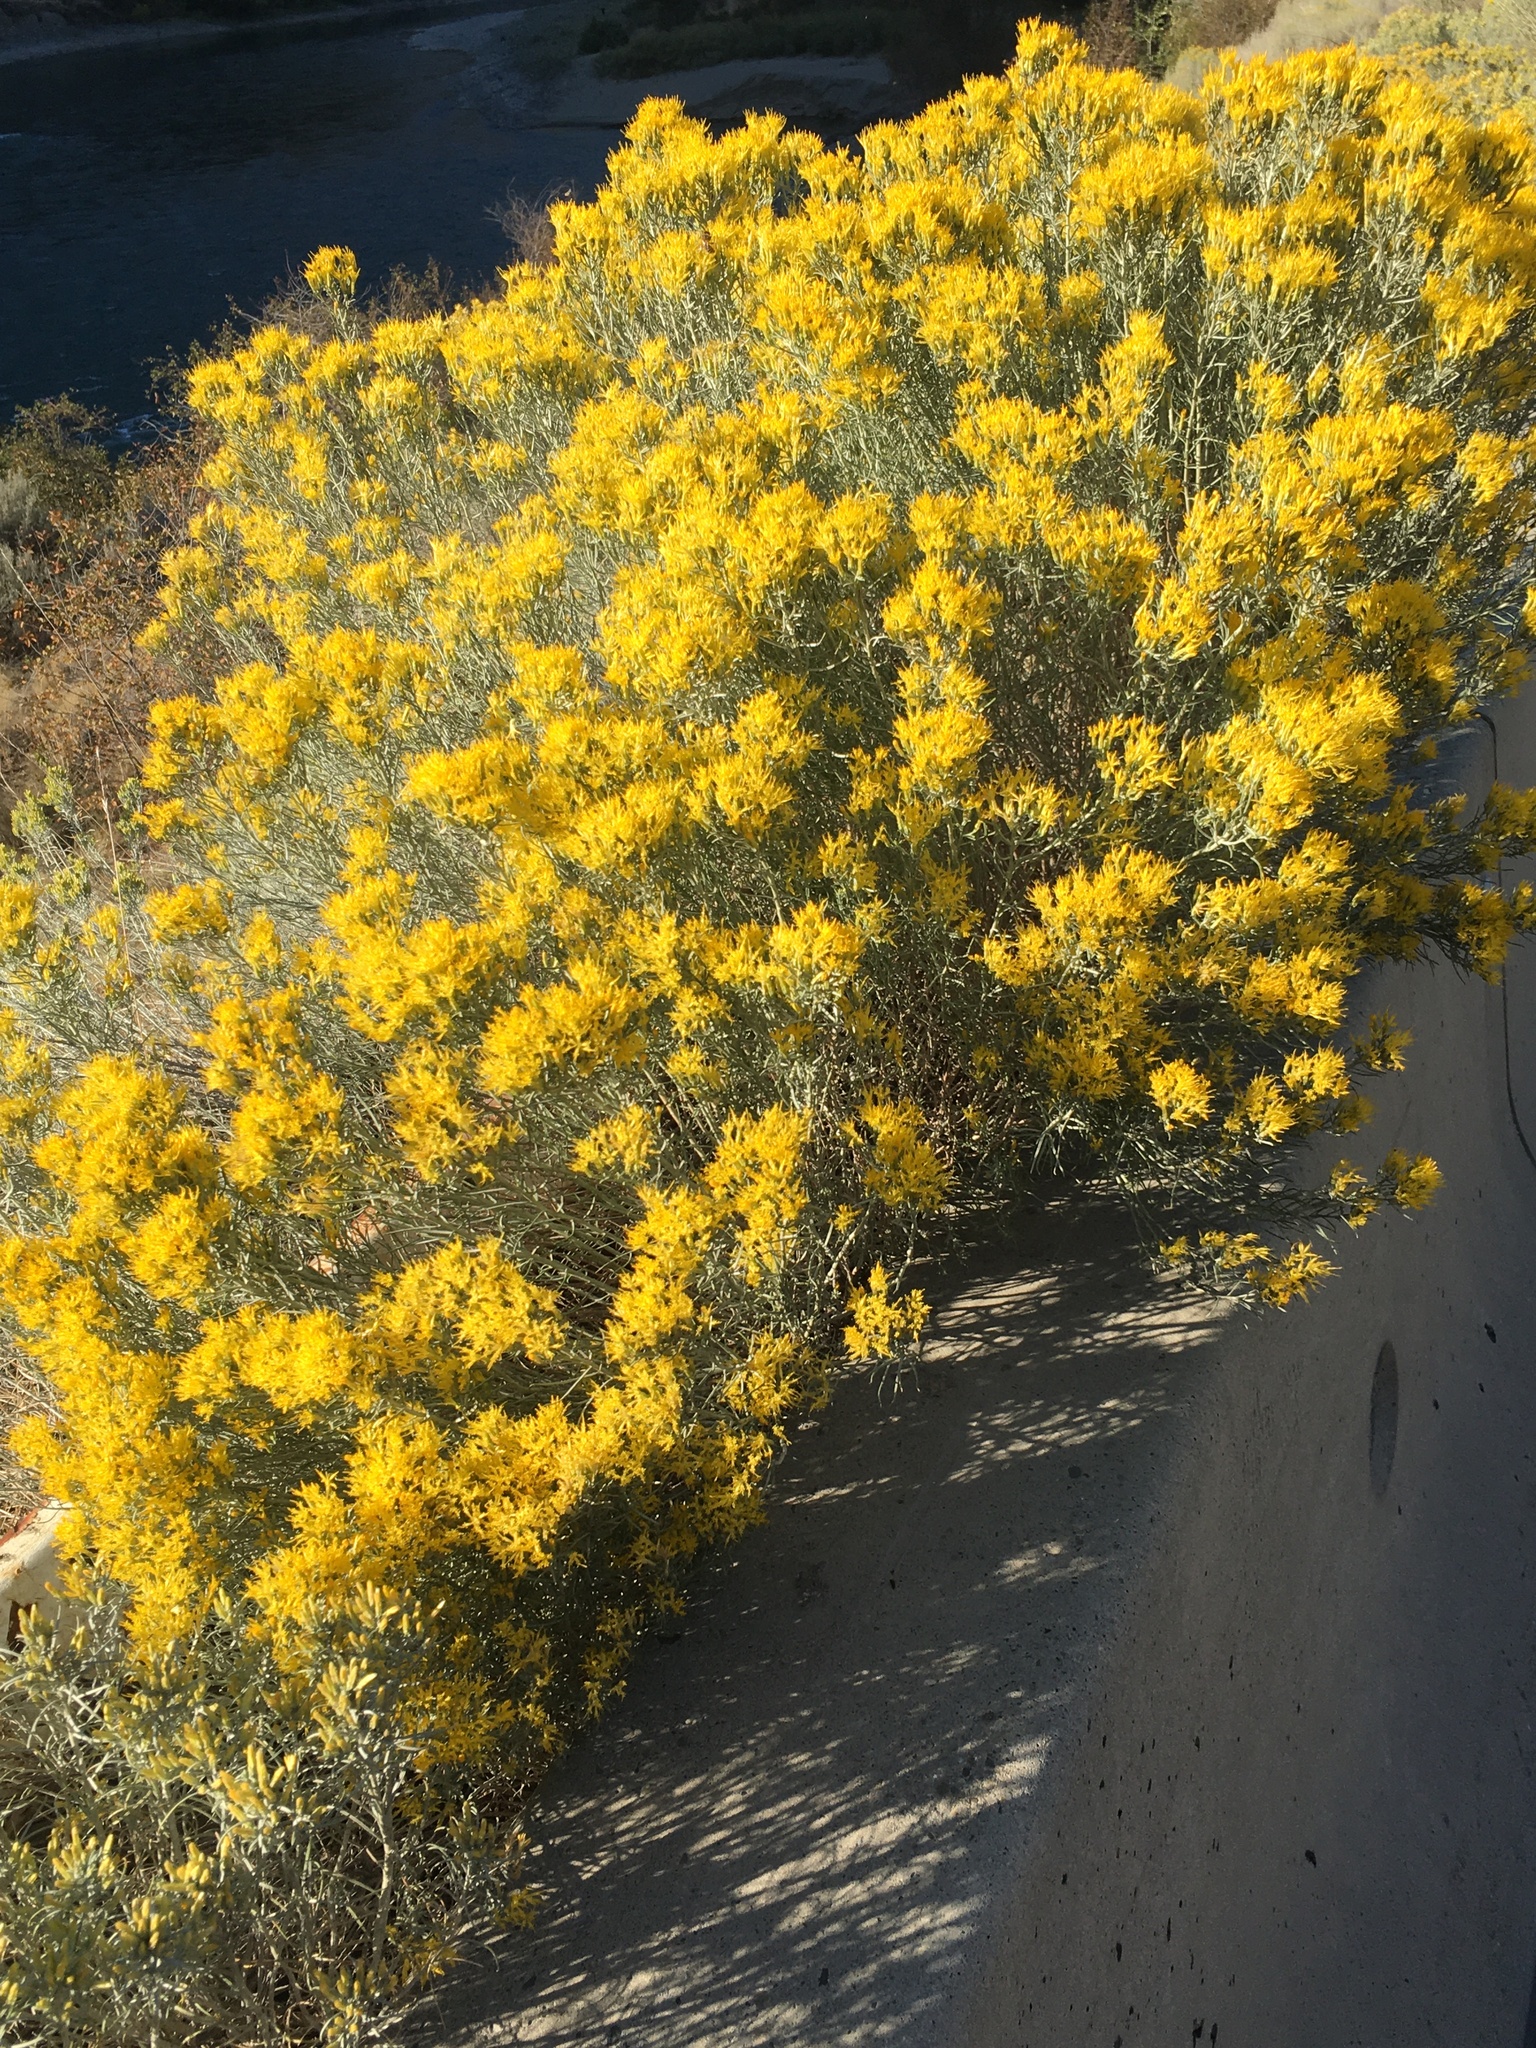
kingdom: Plantae
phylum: Tracheophyta
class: Magnoliopsida
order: Asterales
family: Asteraceae
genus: Ericameria
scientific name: Ericameria nauseosa
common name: Rubber rabbitbrush
